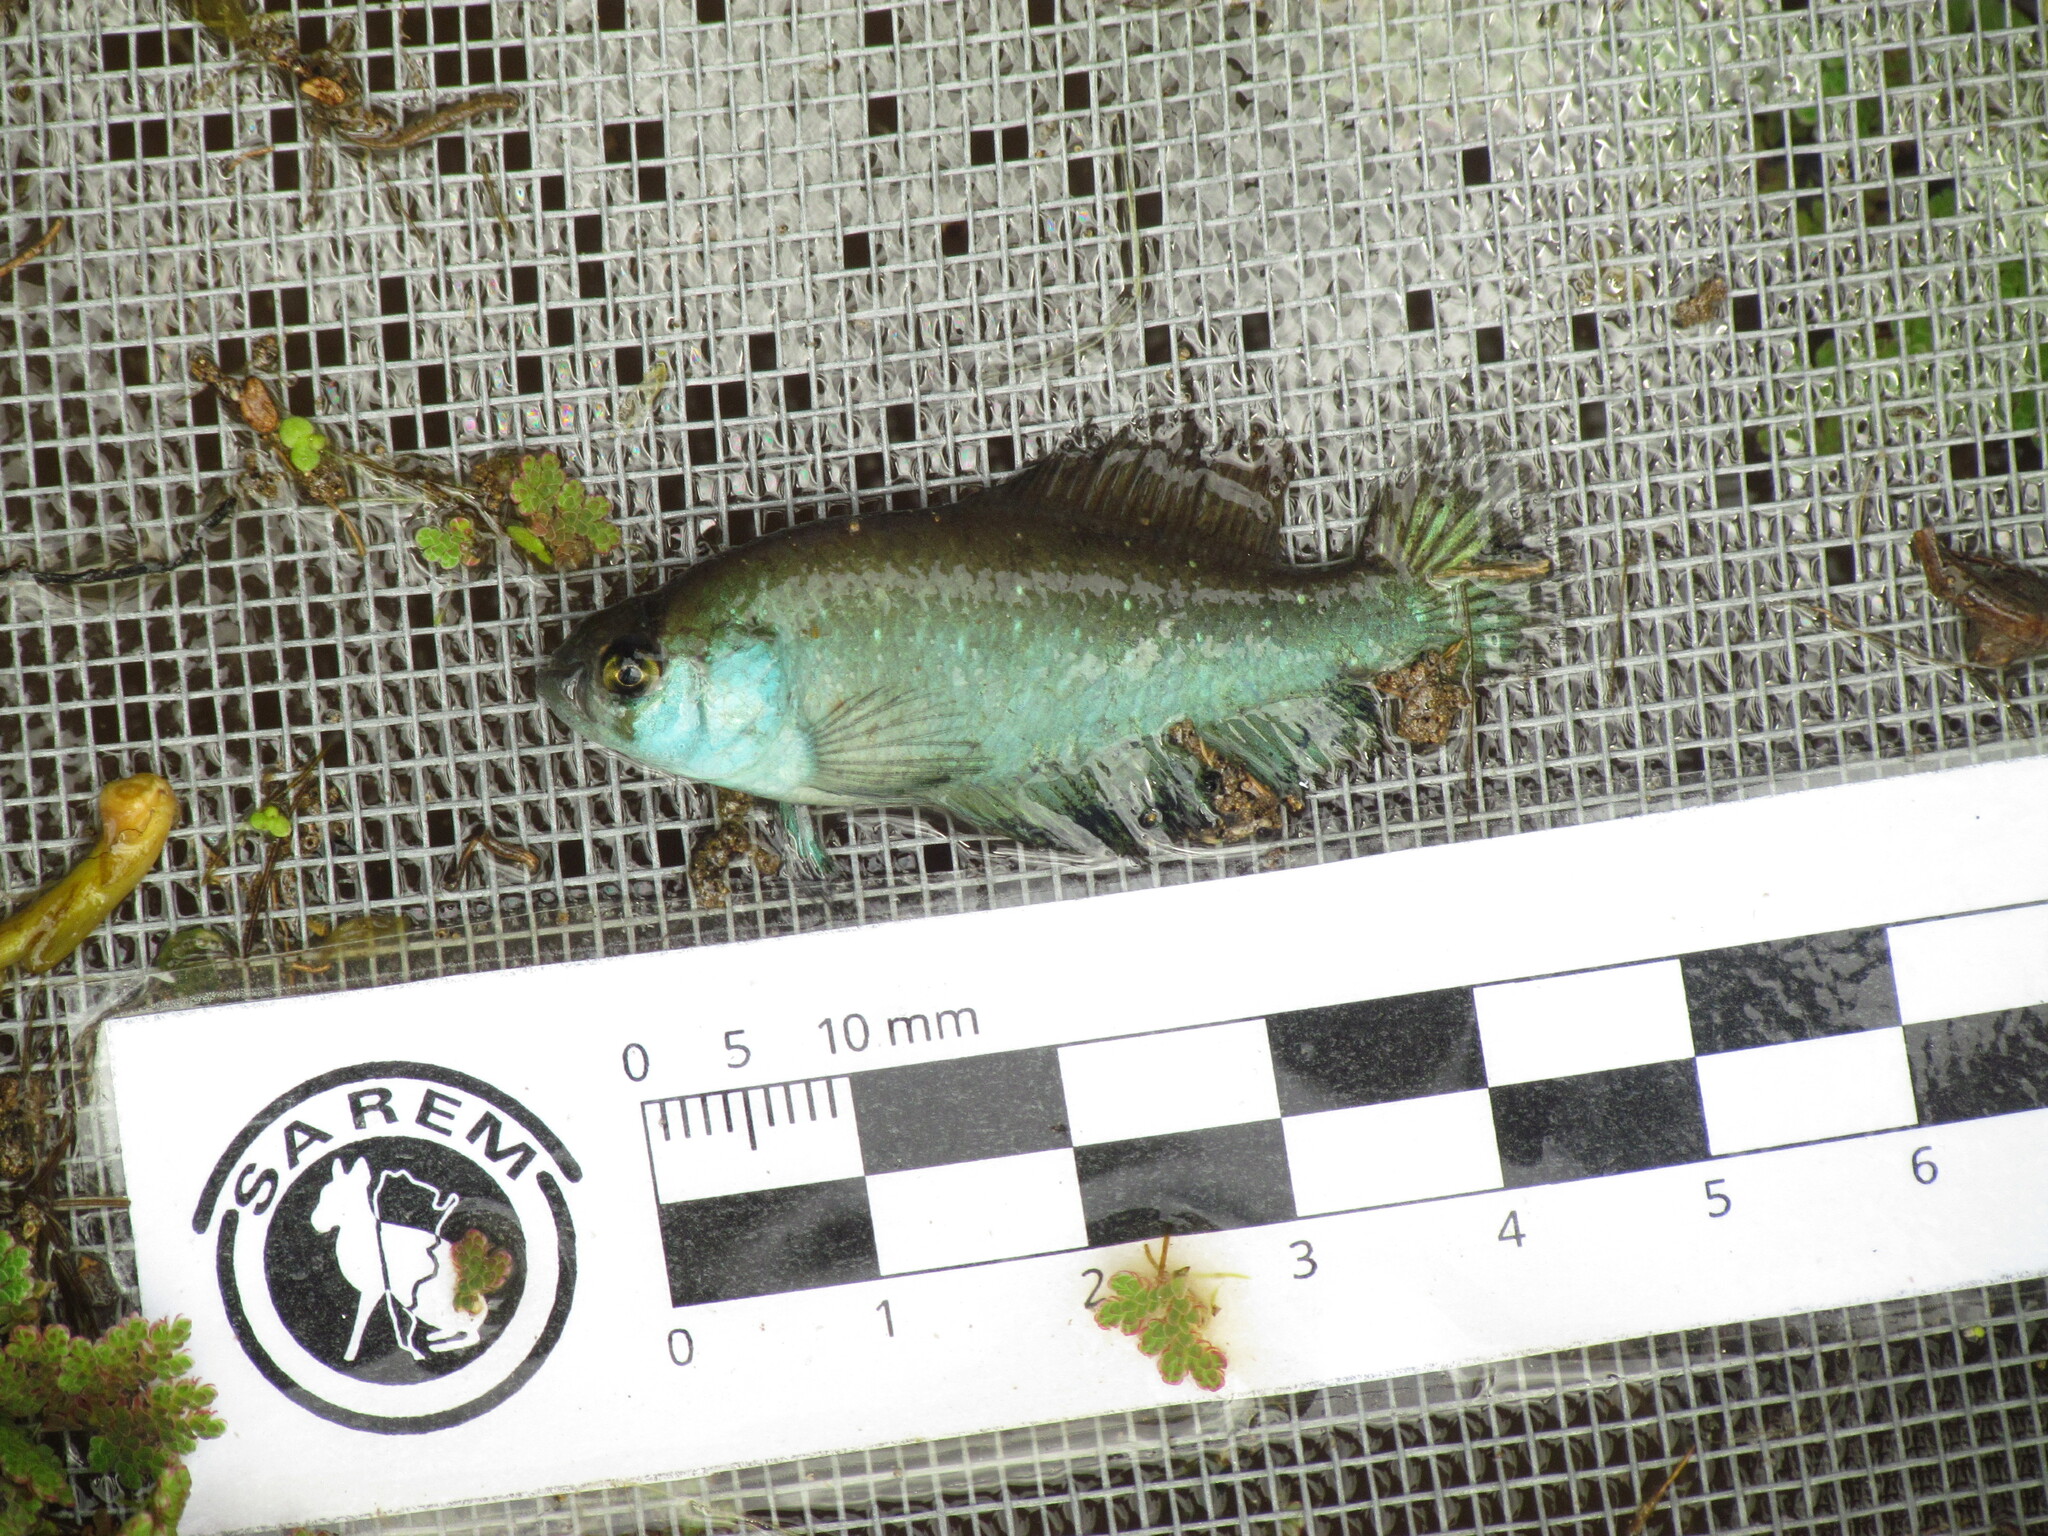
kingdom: Animalia
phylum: Chordata
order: Cyprinodontiformes
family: Rivulidae
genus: Austrolebias
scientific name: Austrolebias bellottii
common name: Argentine pearlfish
